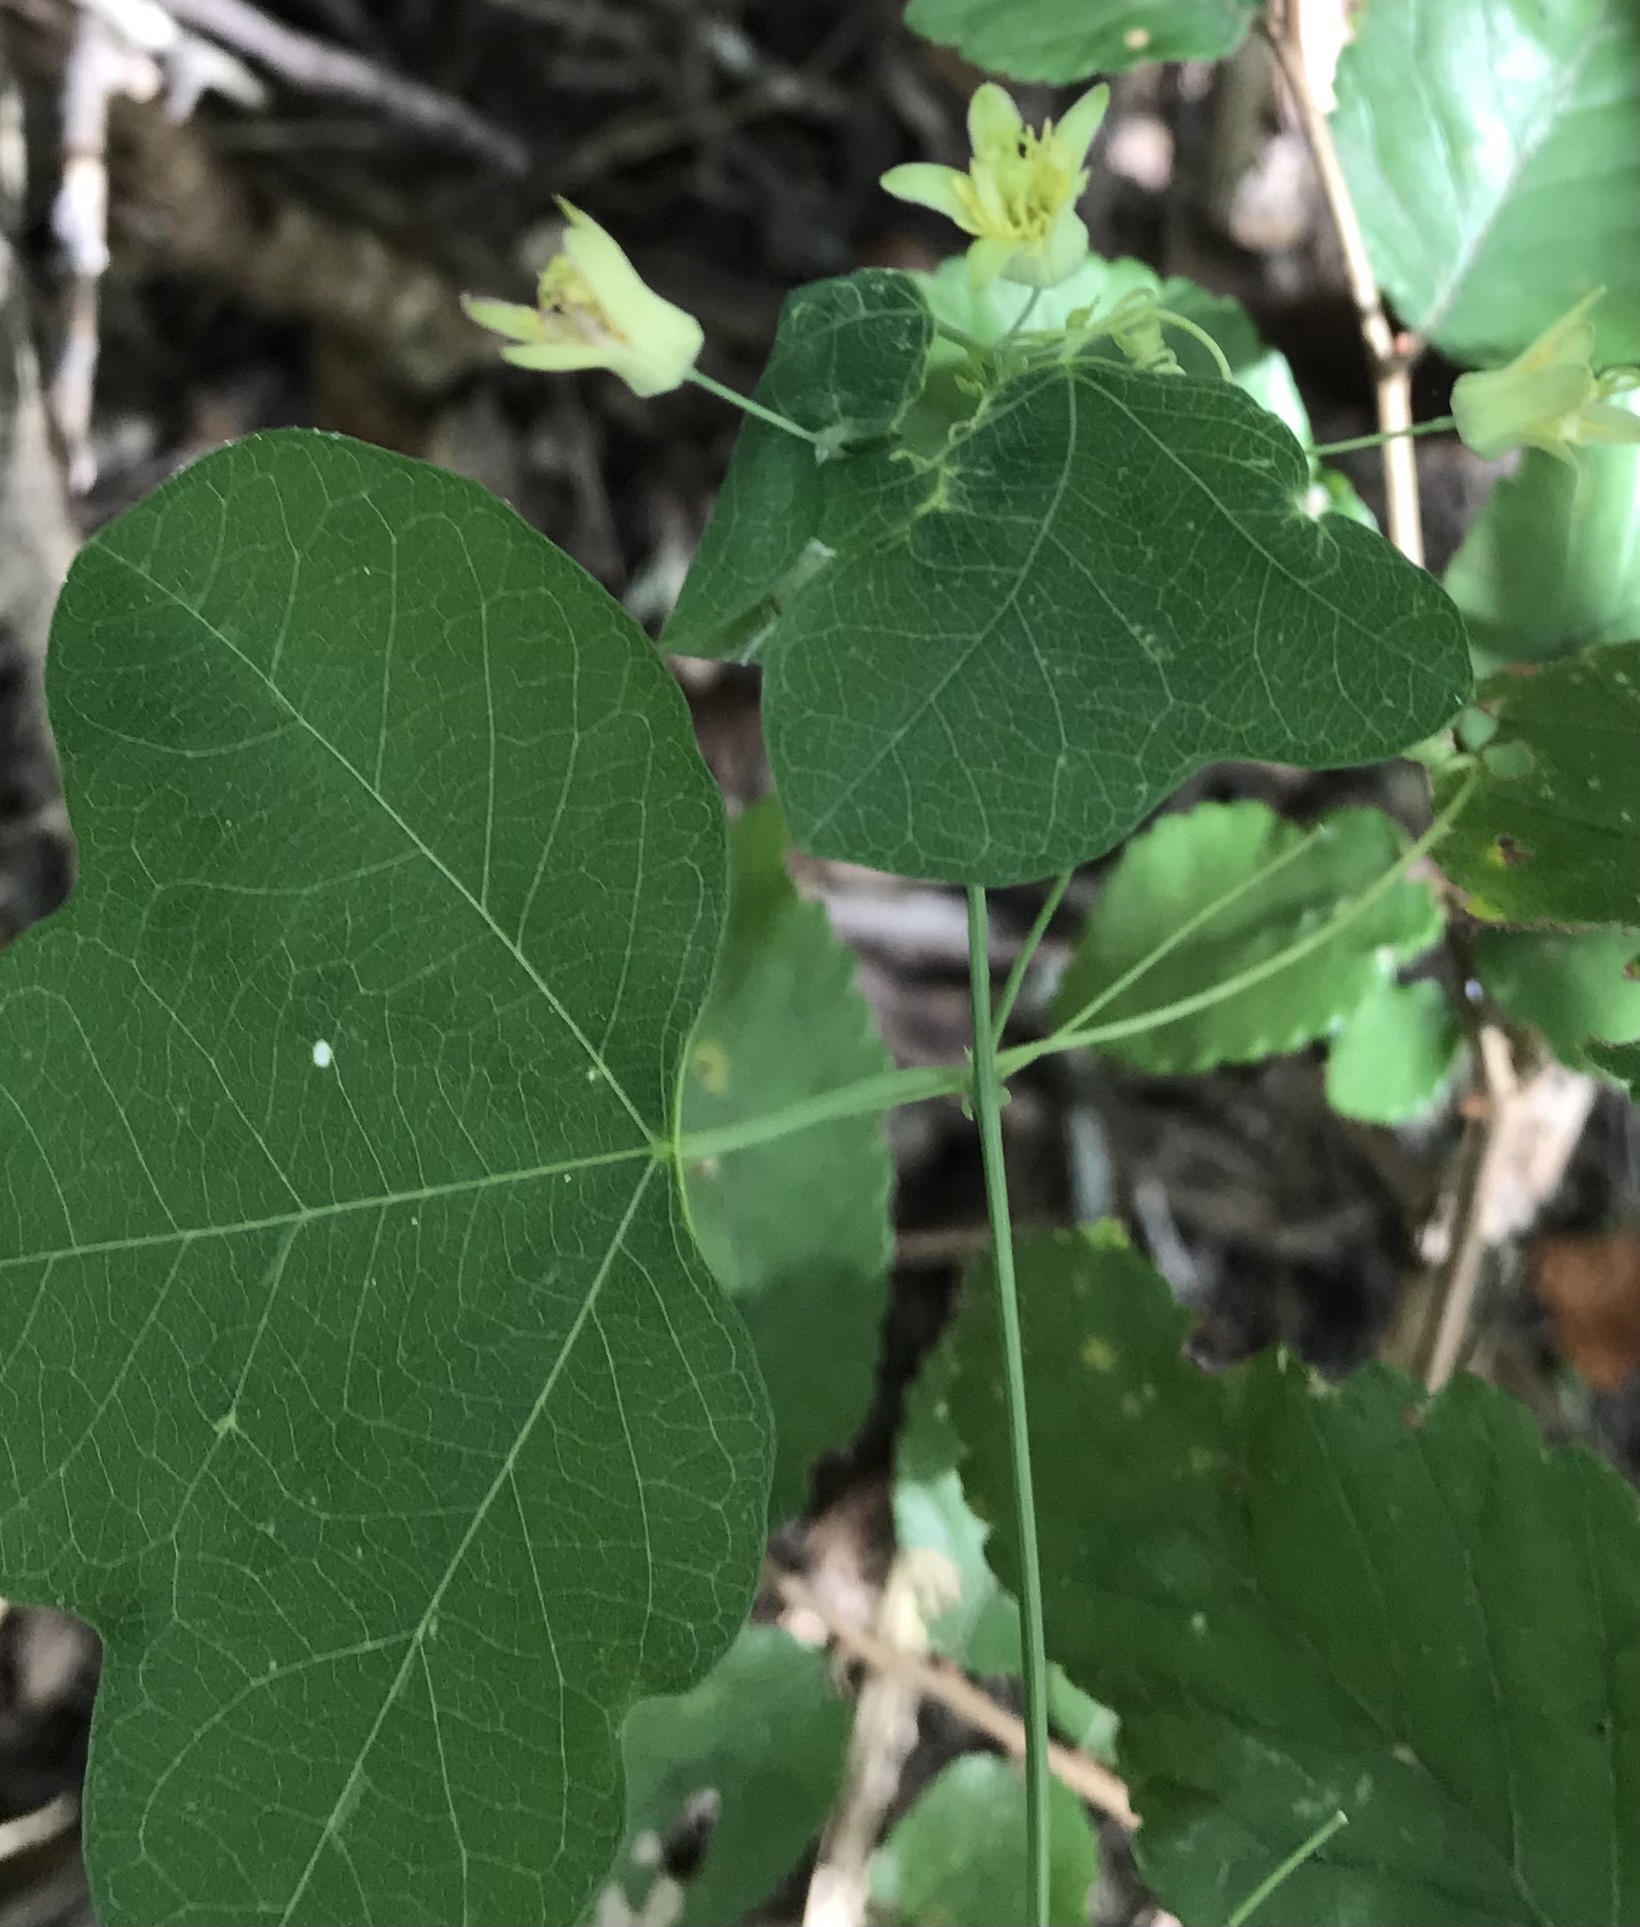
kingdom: Plantae
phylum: Tracheophyta
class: Magnoliopsida
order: Malpighiales
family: Passifloraceae
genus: Passiflora
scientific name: Passiflora lutea
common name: Yellow passionflower
